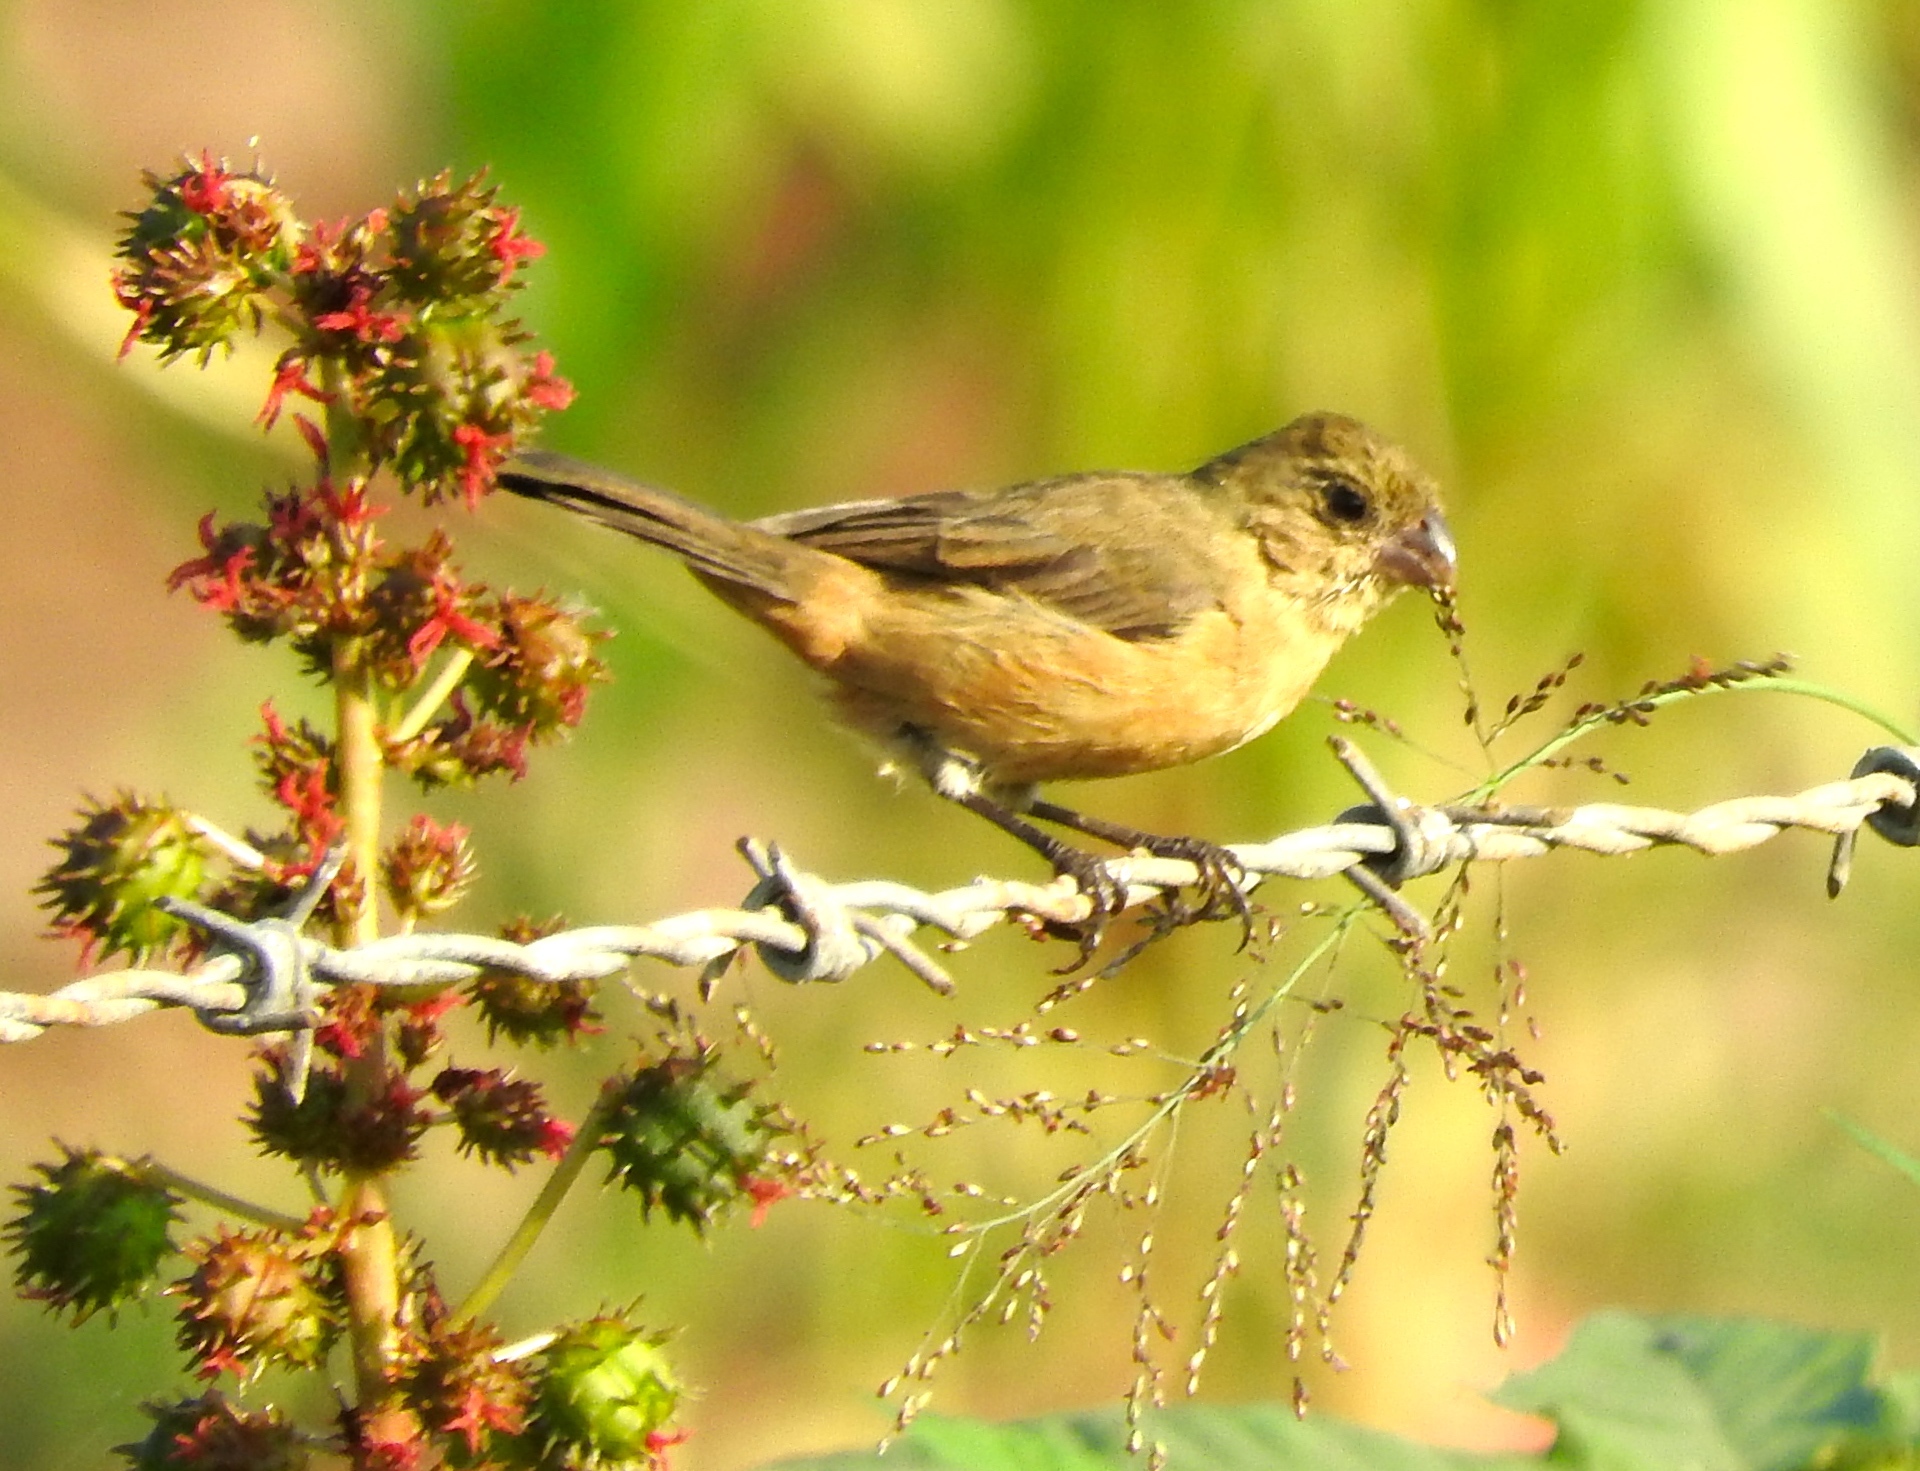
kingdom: Animalia
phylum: Chordata
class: Aves
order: Passeriformes
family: Thraupidae
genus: Sporophila
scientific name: Sporophila torqueola
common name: White-collared seedeater
